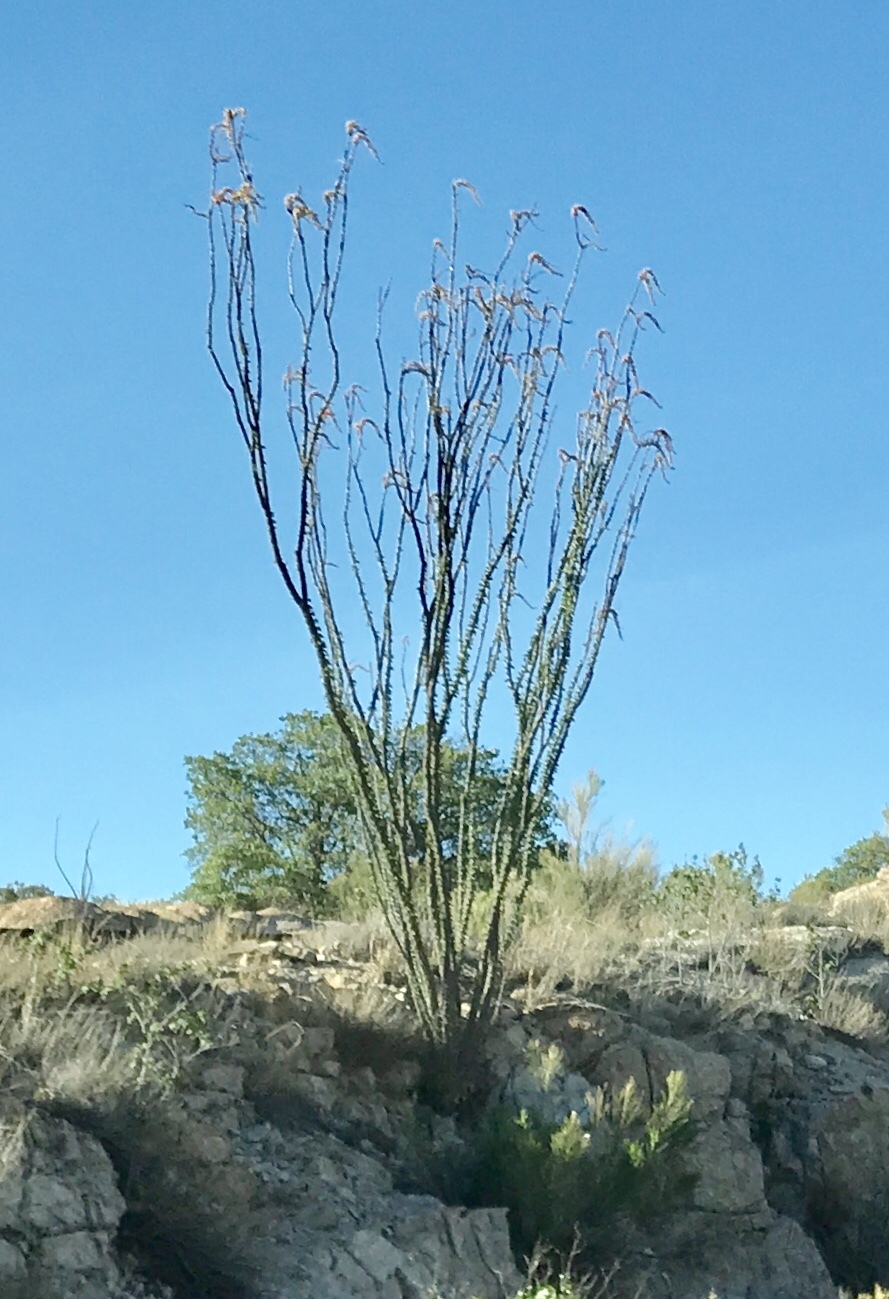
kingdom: Plantae
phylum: Tracheophyta
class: Magnoliopsida
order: Ericales
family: Fouquieriaceae
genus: Fouquieria
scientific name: Fouquieria splendens
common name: Vine-cactus
